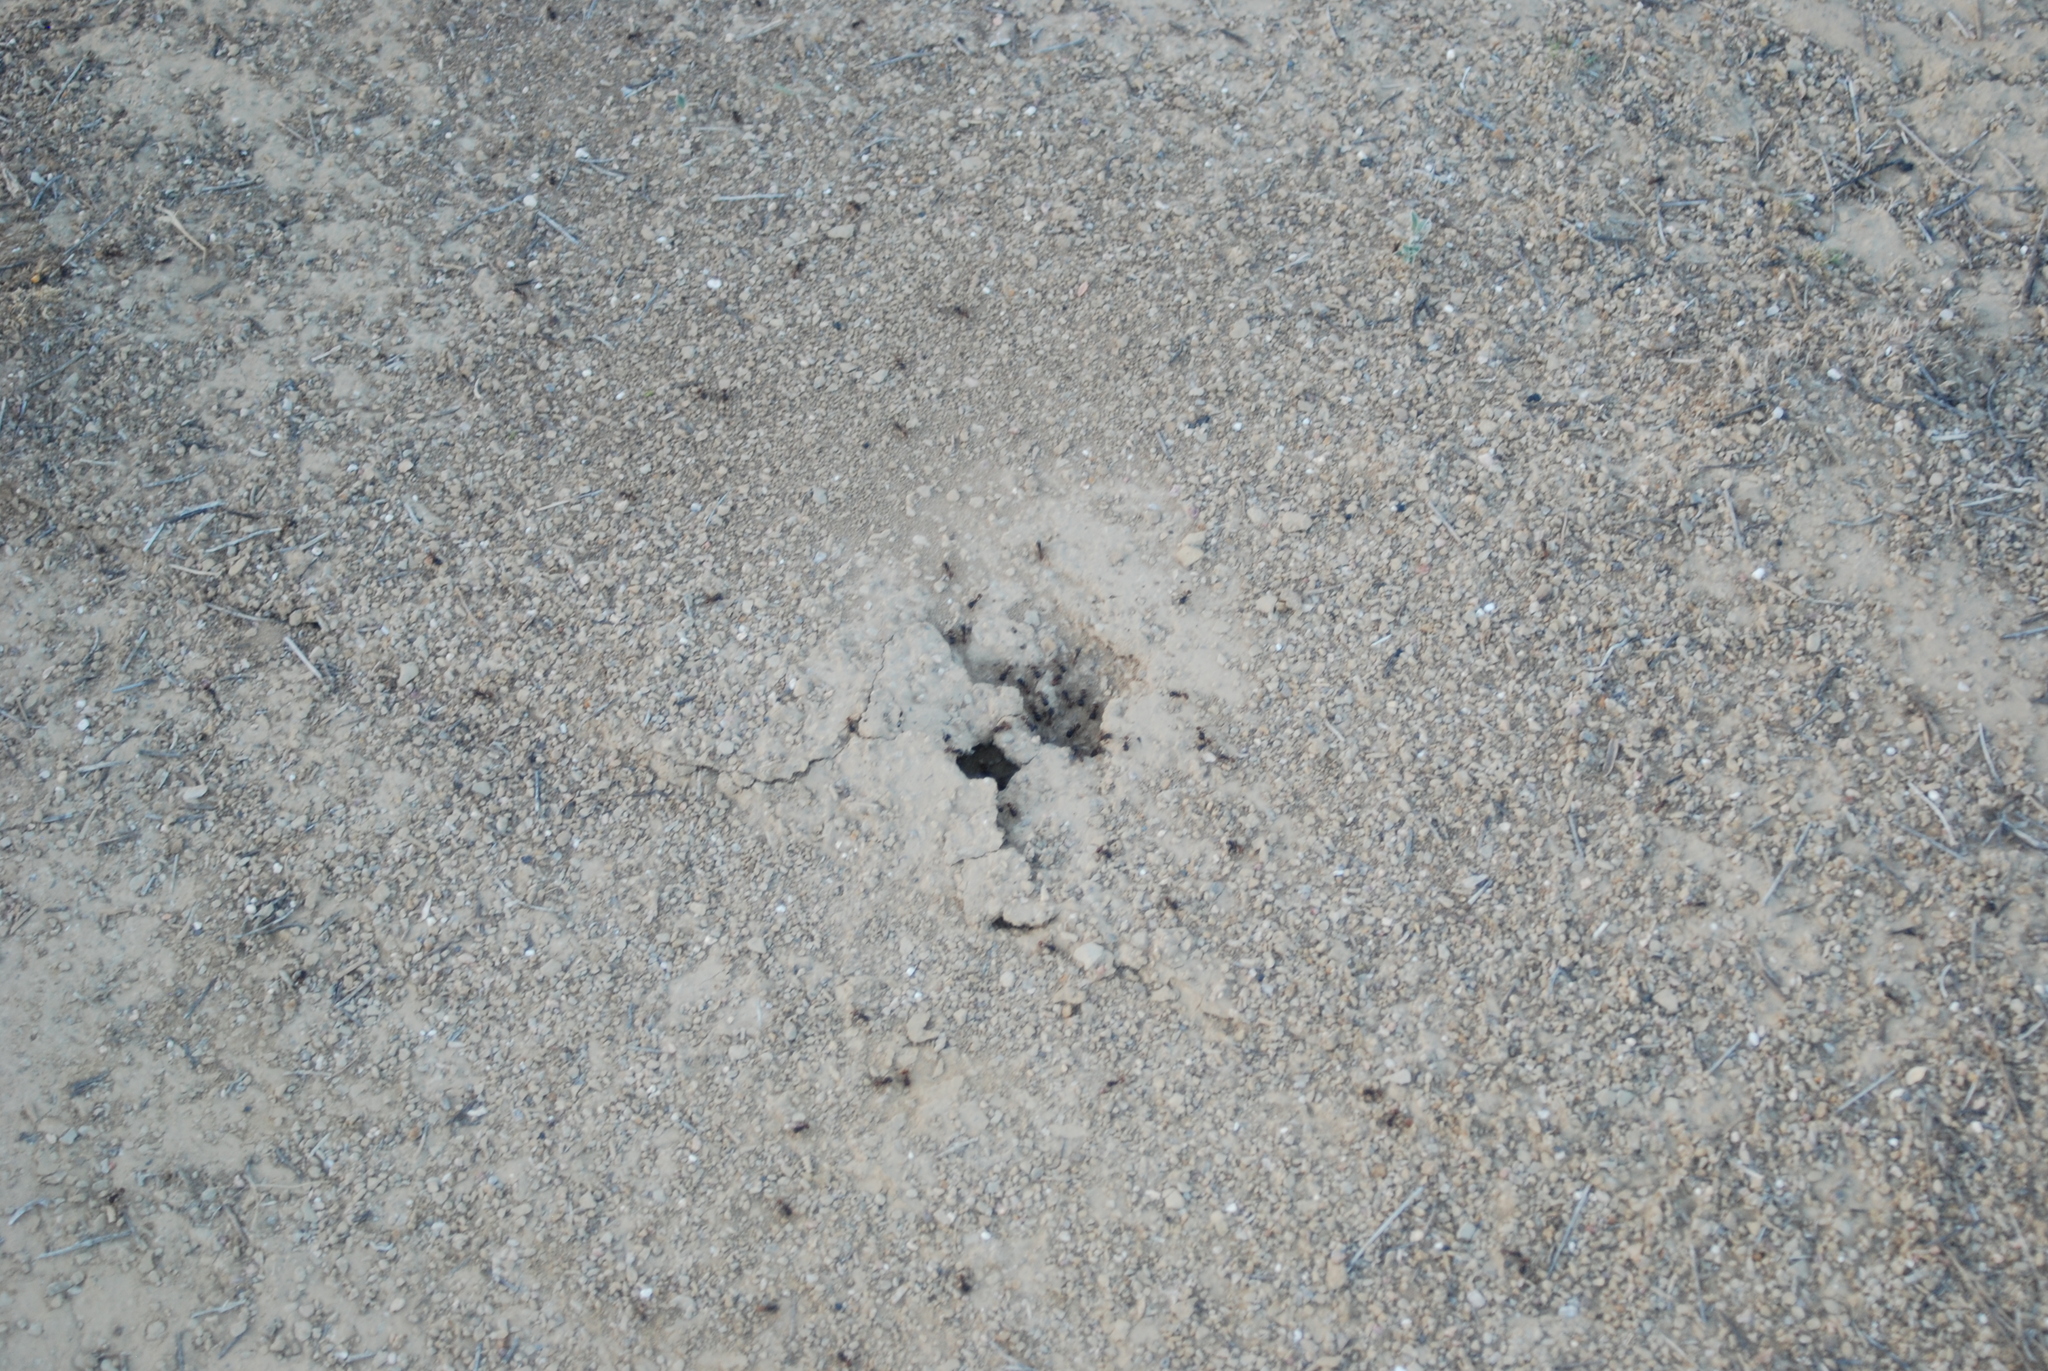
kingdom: Animalia
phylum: Arthropoda
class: Insecta
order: Hymenoptera
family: Formicidae
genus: Pogonomyrmex
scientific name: Pogonomyrmex rugosus
